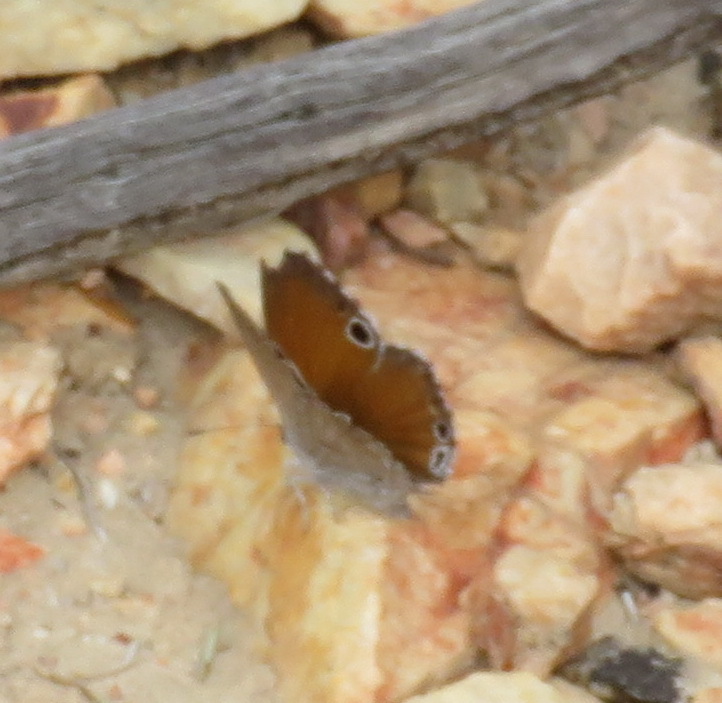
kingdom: Animalia
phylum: Arthropoda
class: Insecta
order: Lepidoptera
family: Lycaenidae
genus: Leptomyrina
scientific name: Leptomyrina lara
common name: Cape black-eye
